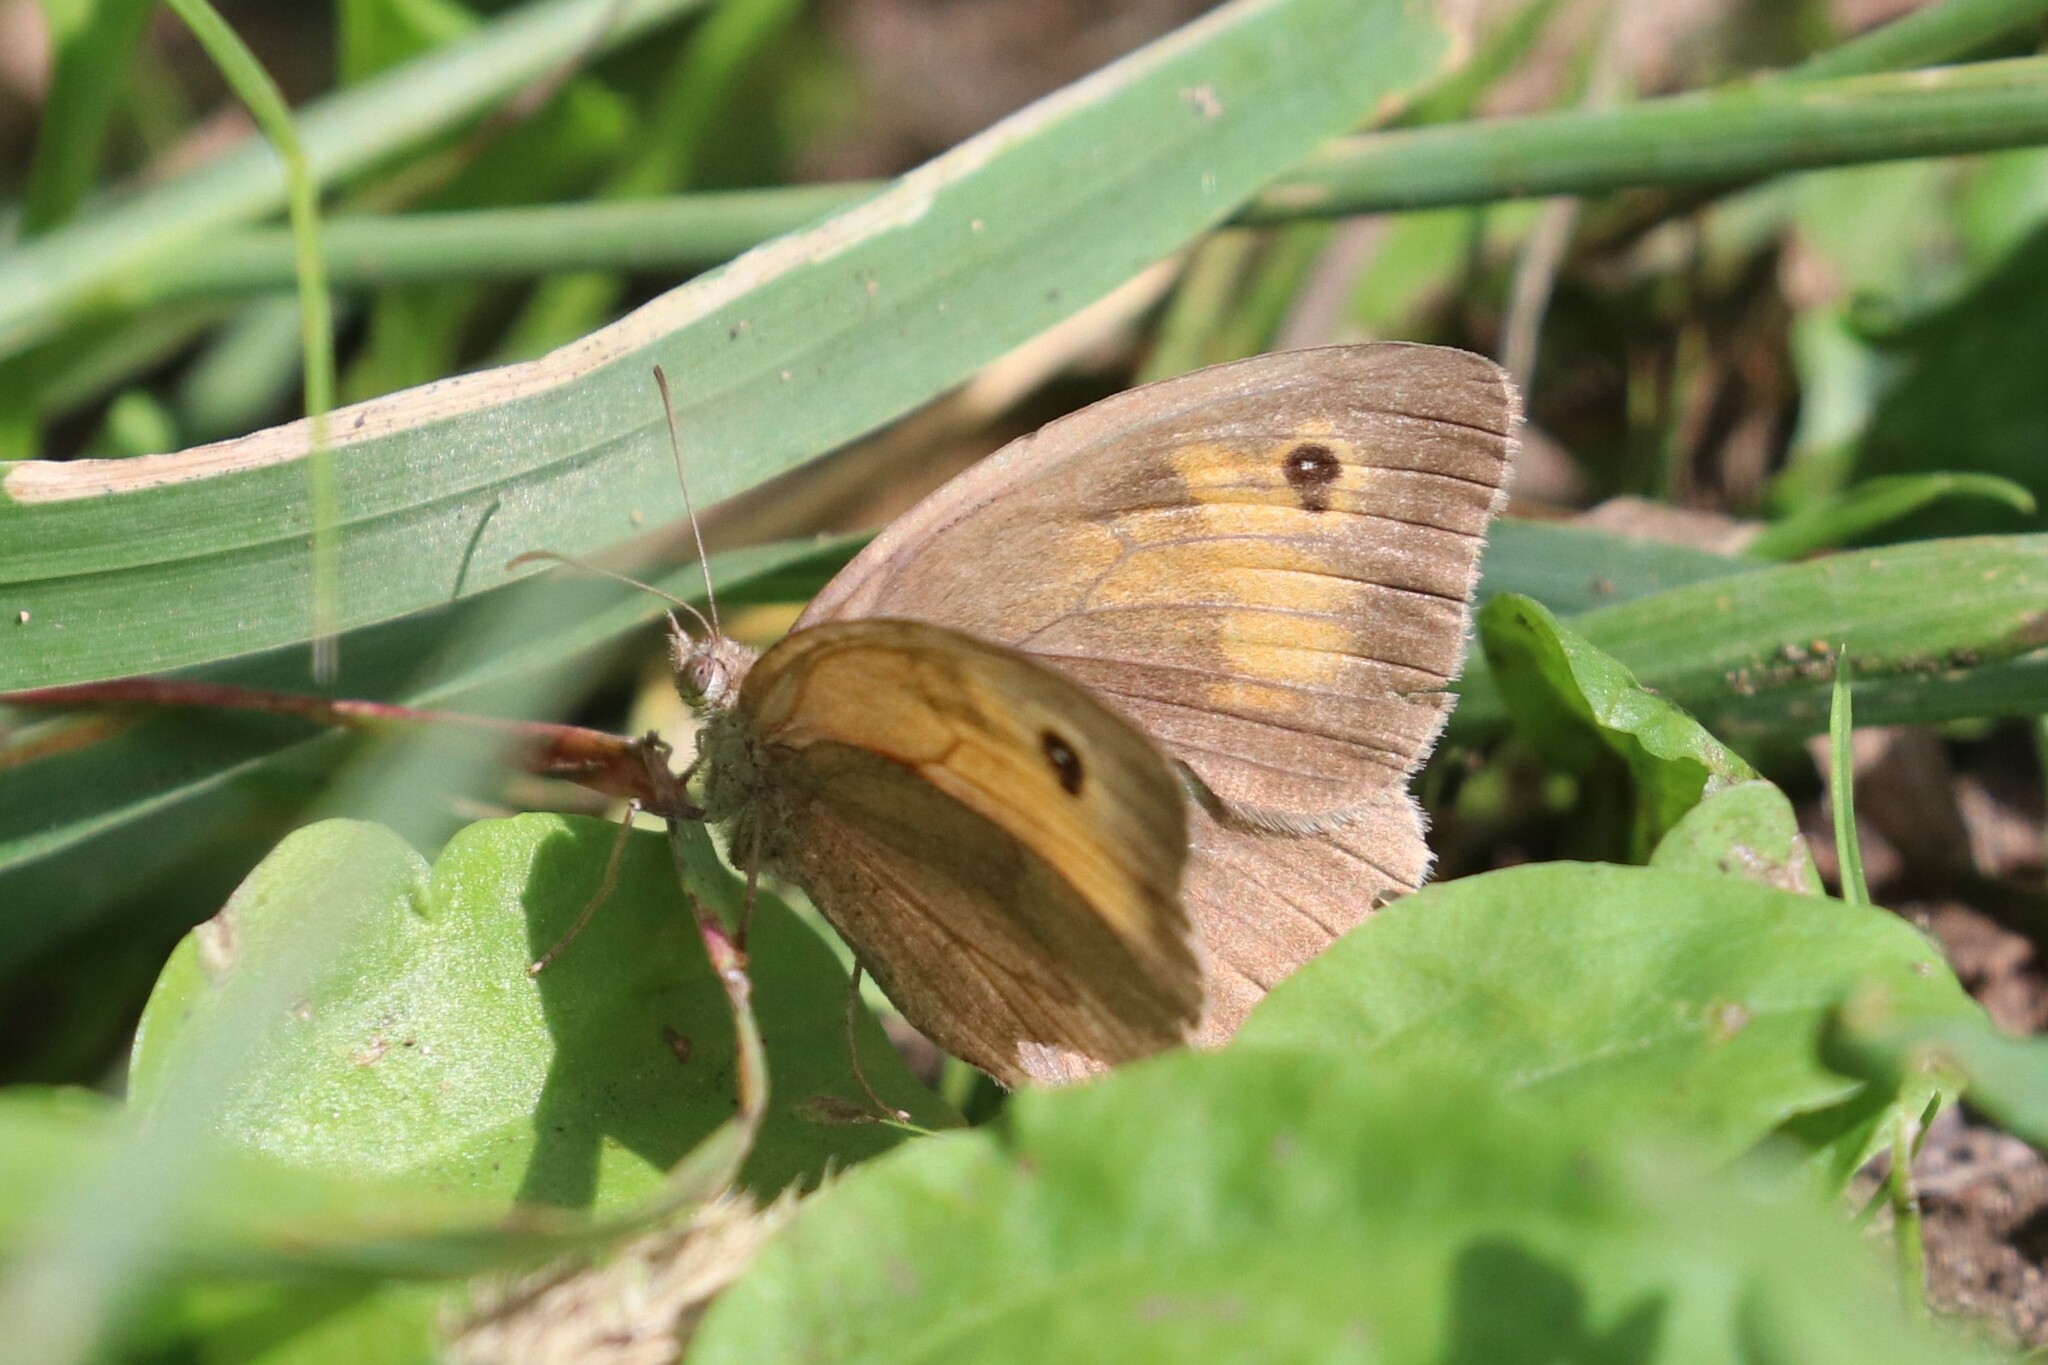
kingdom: Animalia
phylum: Arthropoda
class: Insecta
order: Lepidoptera
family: Nymphalidae
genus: Maniola
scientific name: Maniola jurtina
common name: Meadow brown
